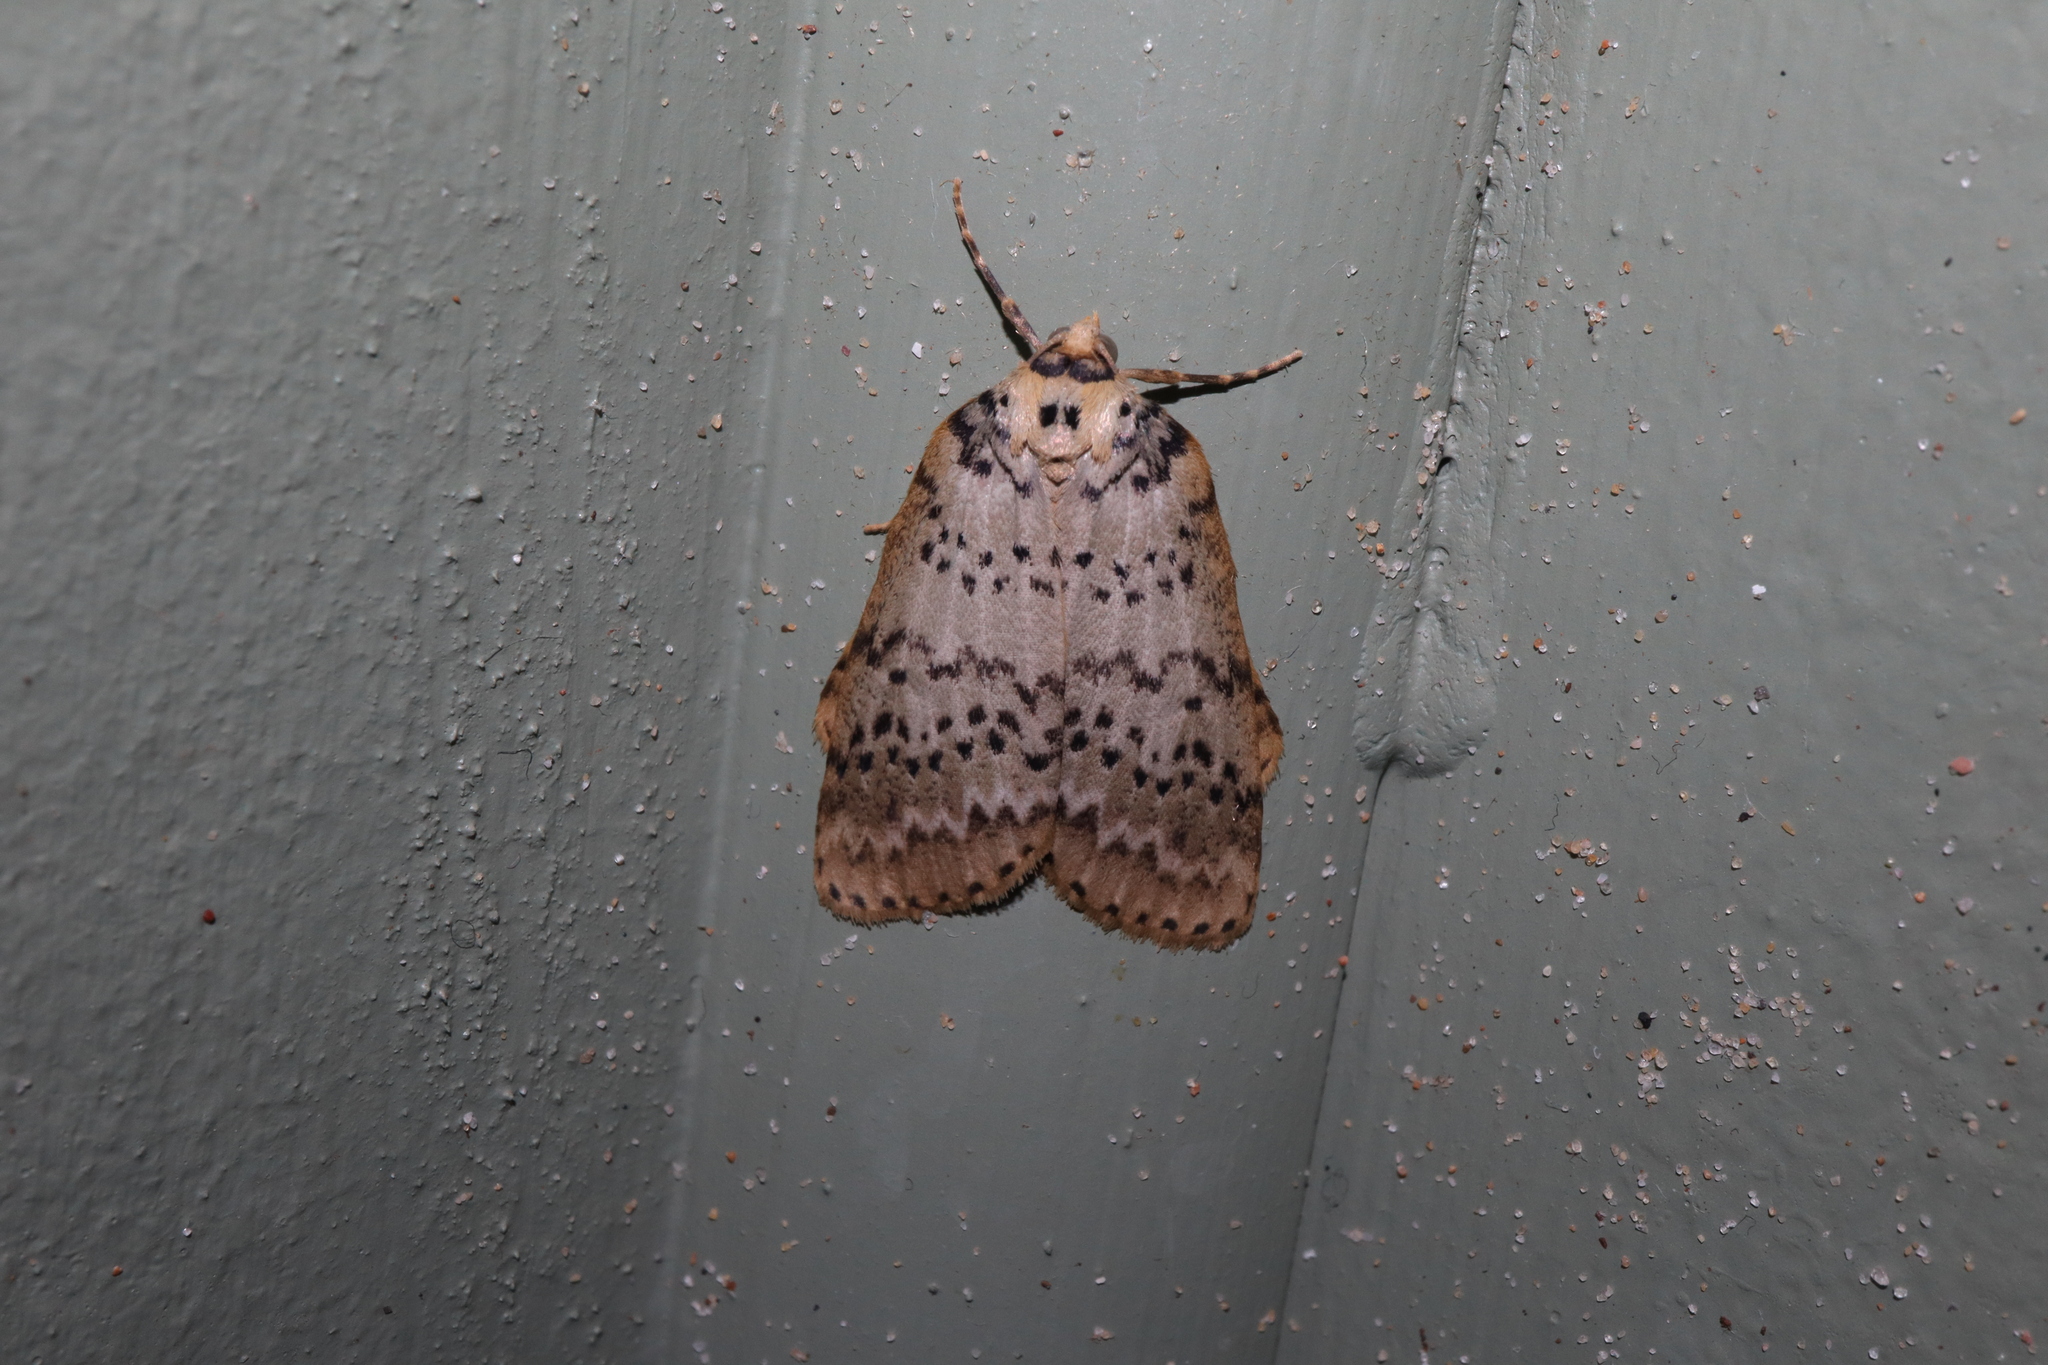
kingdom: Animalia
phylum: Arthropoda
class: Insecta
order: Lepidoptera
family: Geometridae
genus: Lyelliana
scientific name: Lyelliana dryophila
